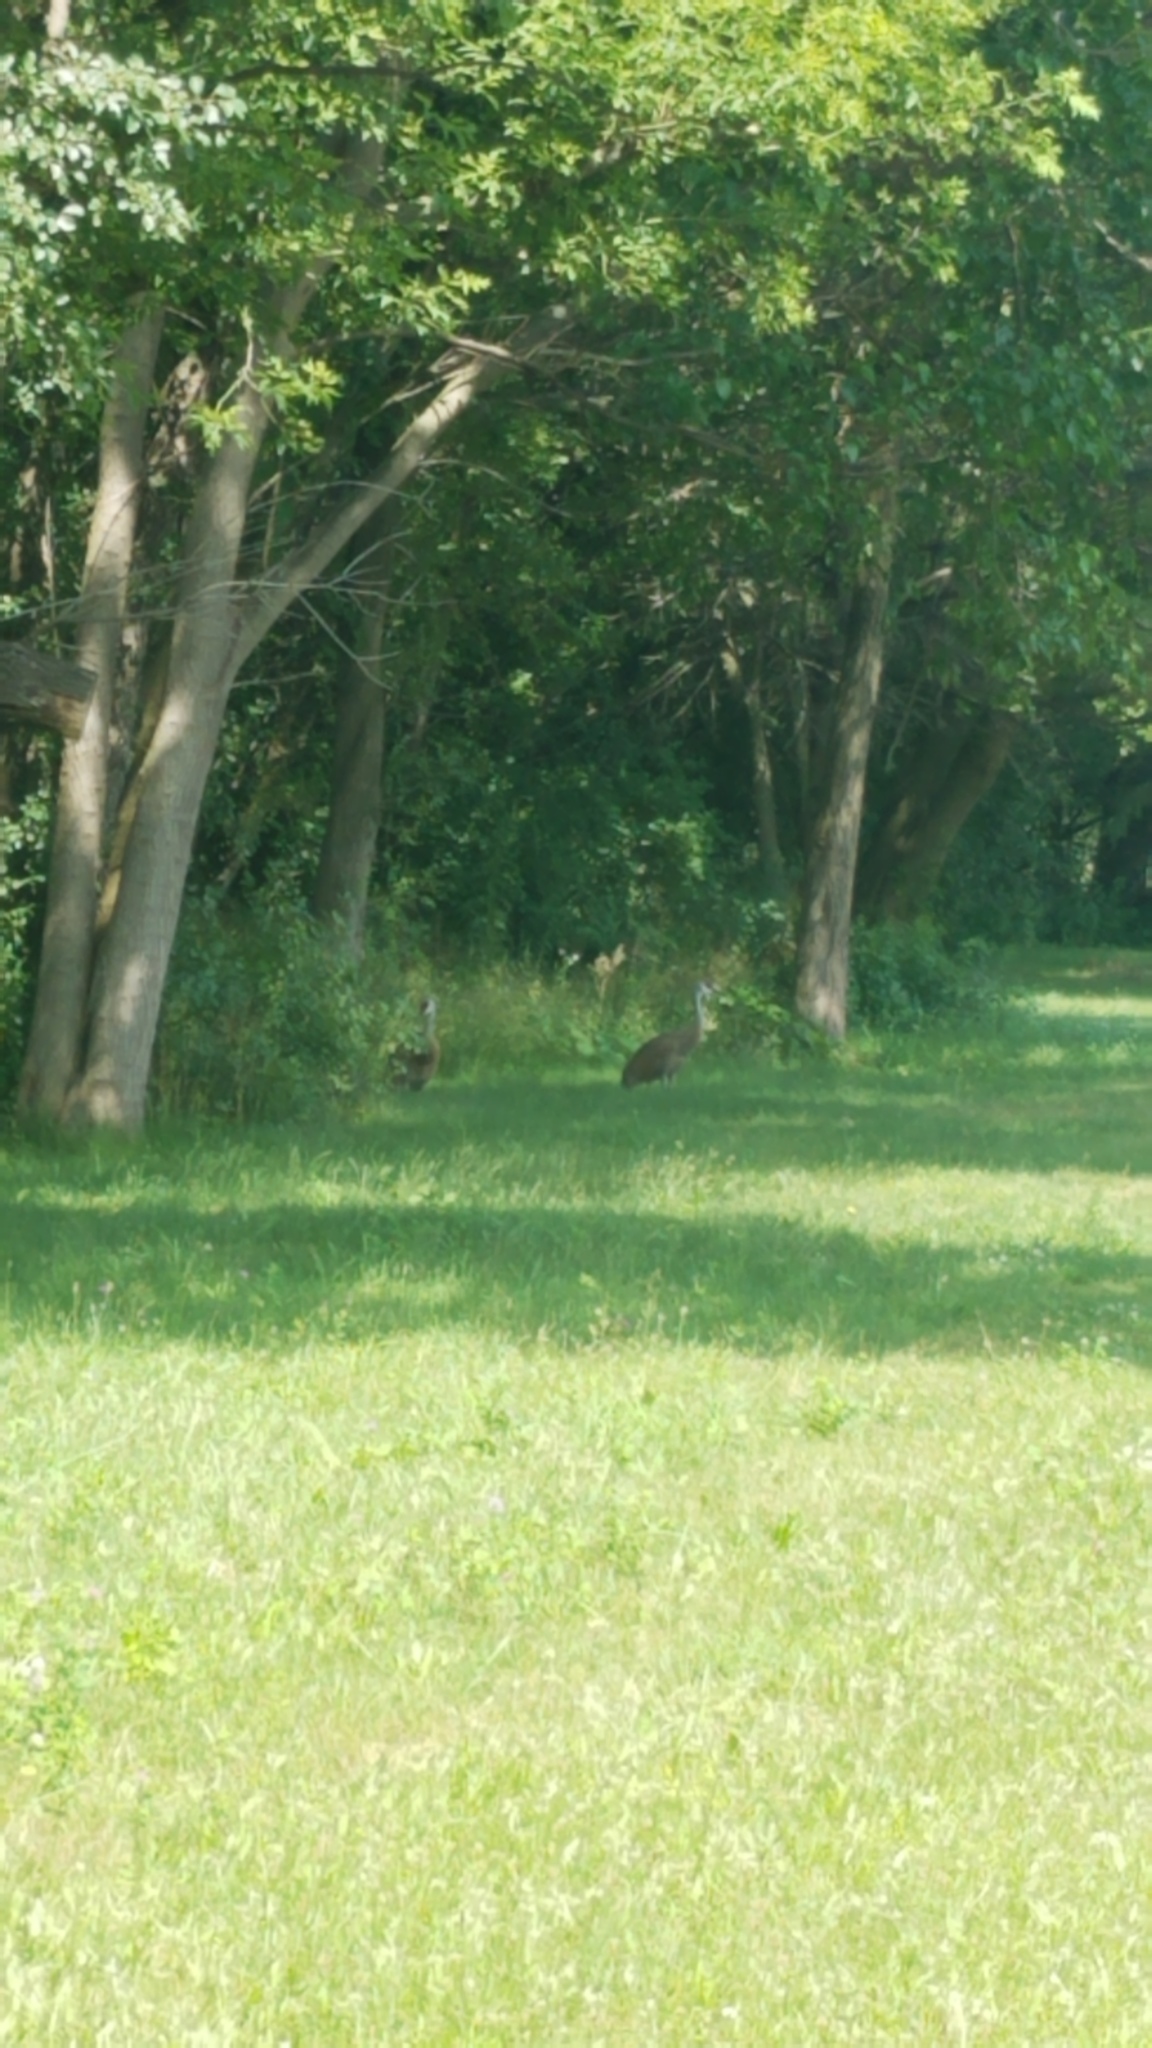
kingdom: Animalia
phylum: Chordata
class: Aves
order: Gruiformes
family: Gruidae
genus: Grus
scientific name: Grus canadensis
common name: Sandhill crane
